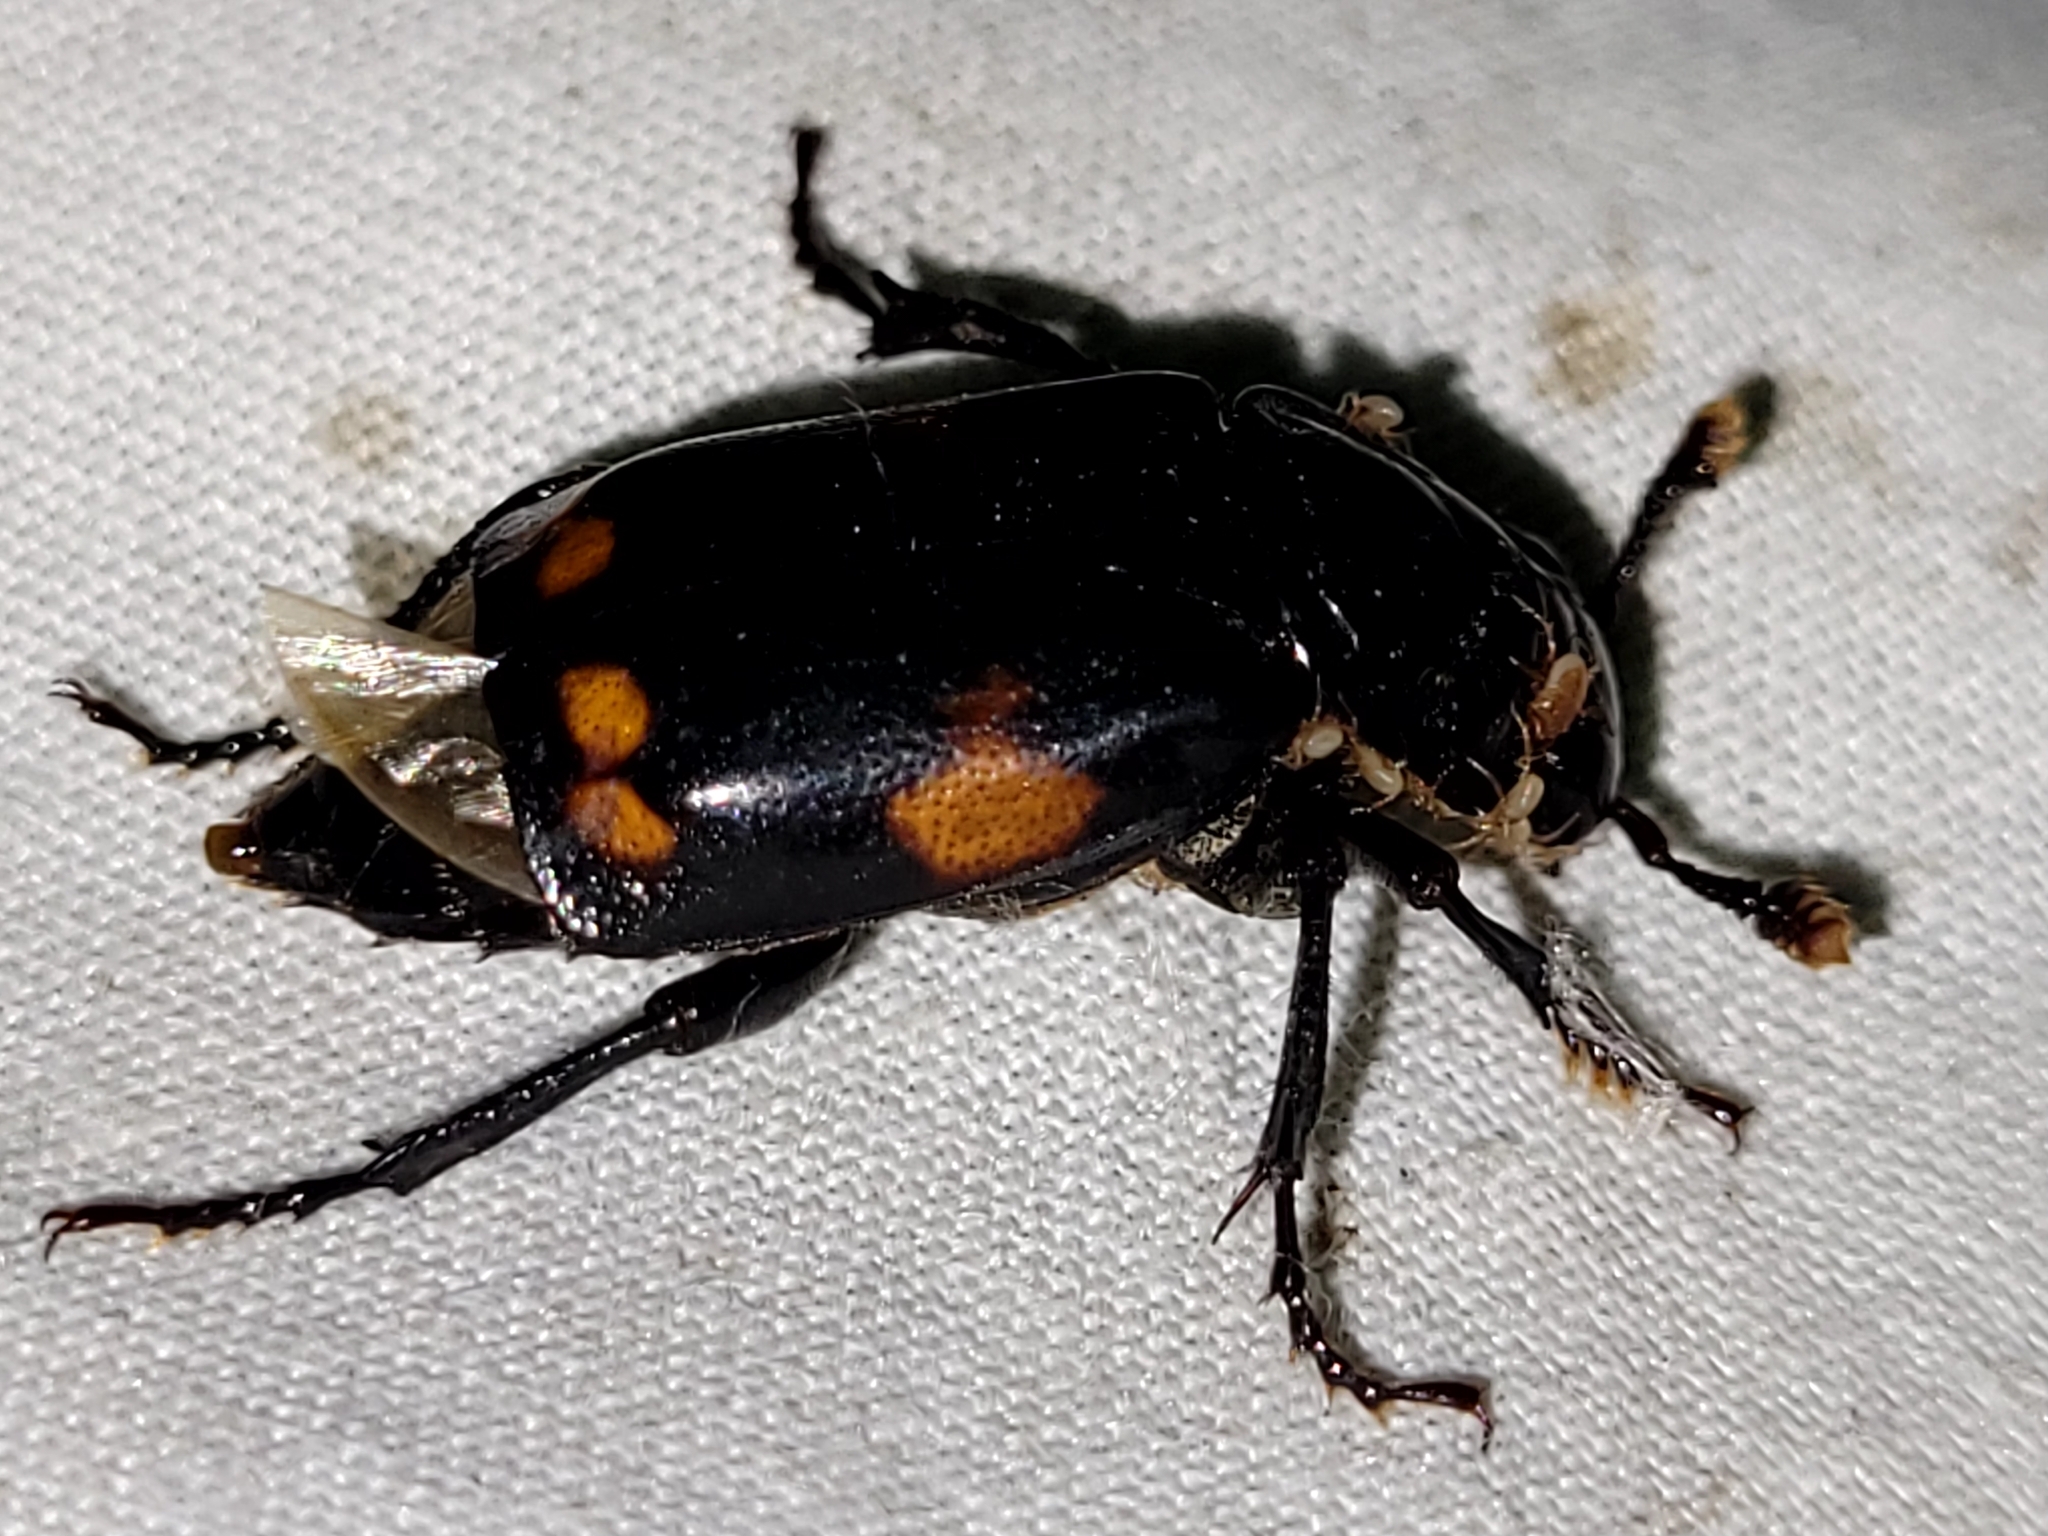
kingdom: Animalia
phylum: Arthropoda
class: Insecta
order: Coleoptera
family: Staphylinidae
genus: Nicrophorus
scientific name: Nicrophorus pustulatus
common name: Pustulated carrion beetle
